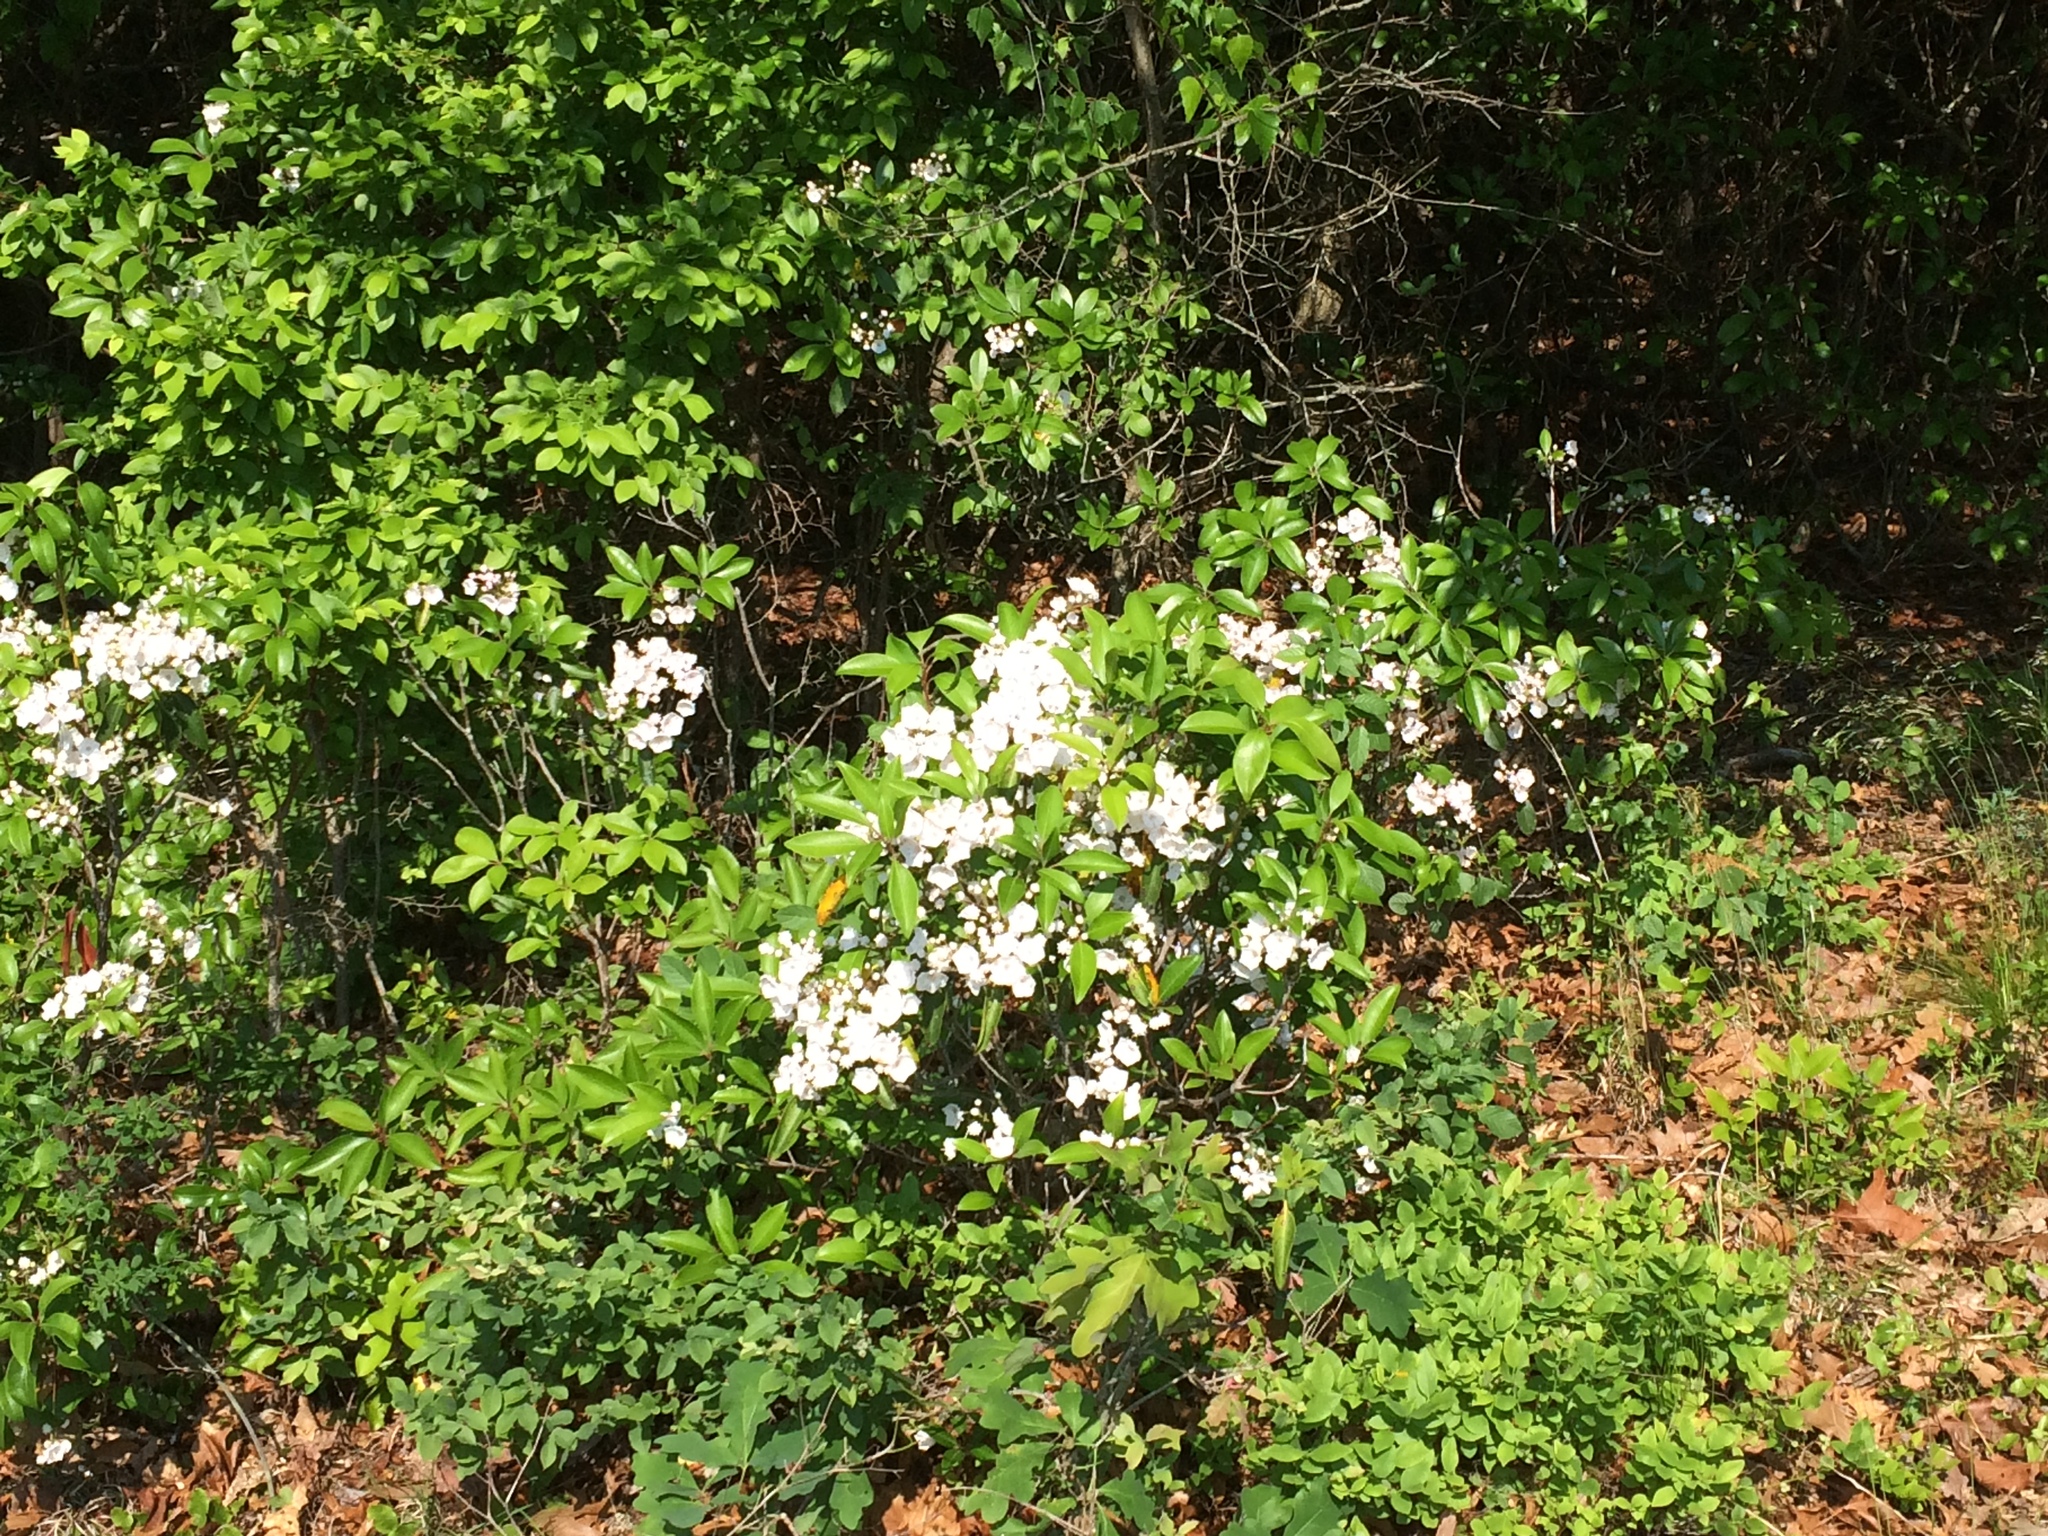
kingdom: Plantae
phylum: Tracheophyta
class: Magnoliopsida
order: Ericales
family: Ericaceae
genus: Kalmia
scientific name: Kalmia latifolia
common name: Mountain-laurel
